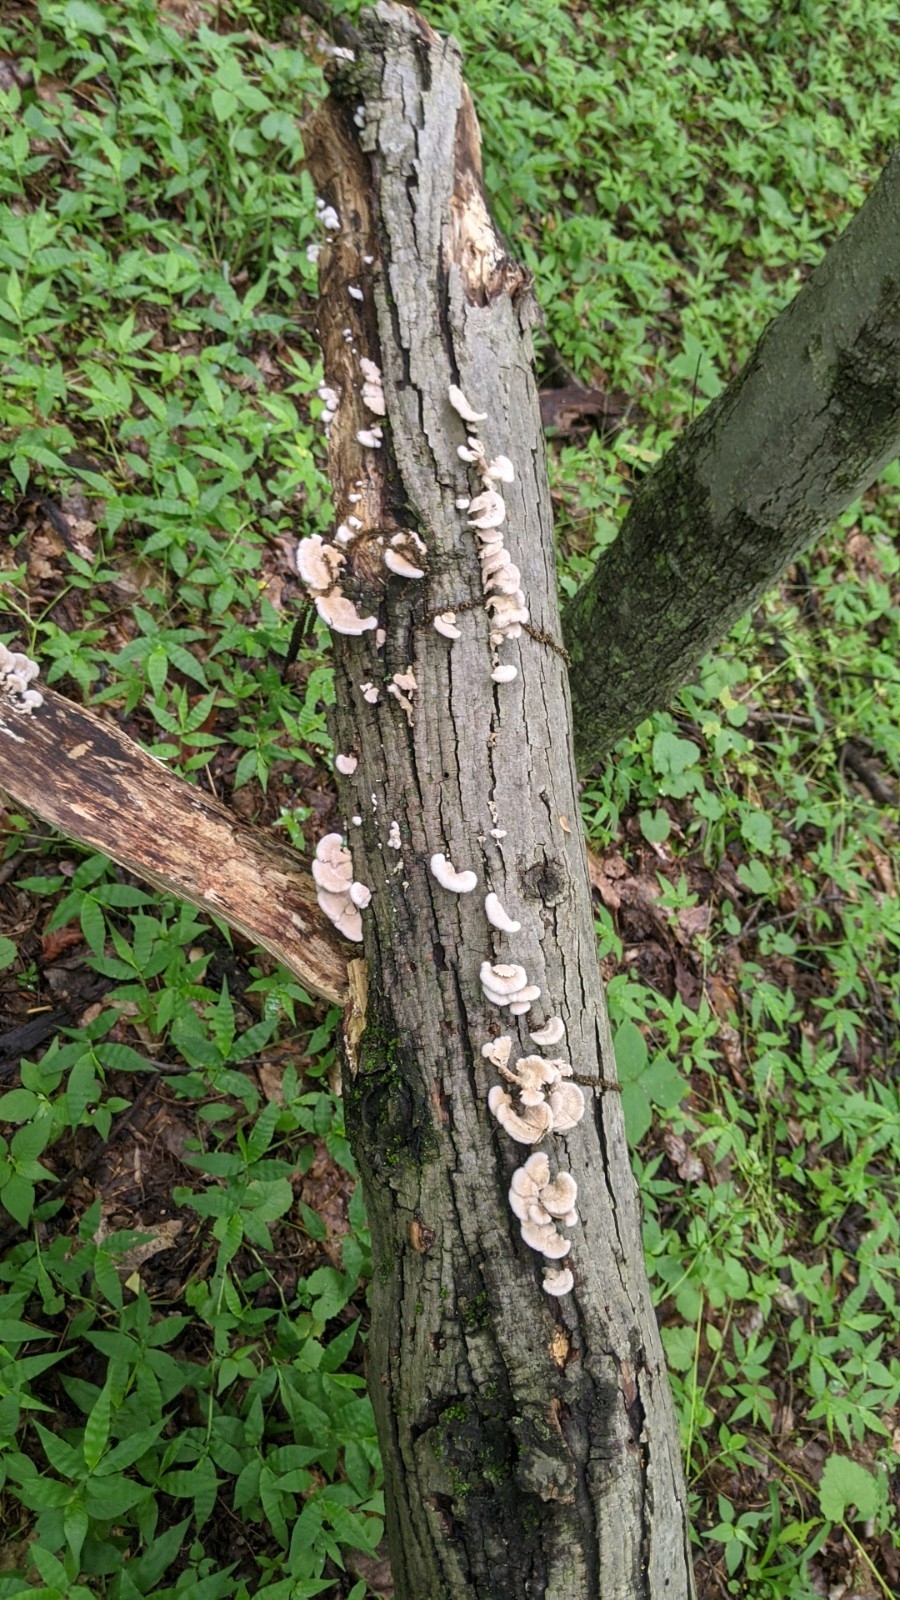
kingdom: Fungi
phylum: Basidiomycota
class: Agaricomycetes
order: Agaricales
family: Schizophyllaceae
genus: Schizophyllum
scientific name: Schizophyllum commune
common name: Common porecrust
